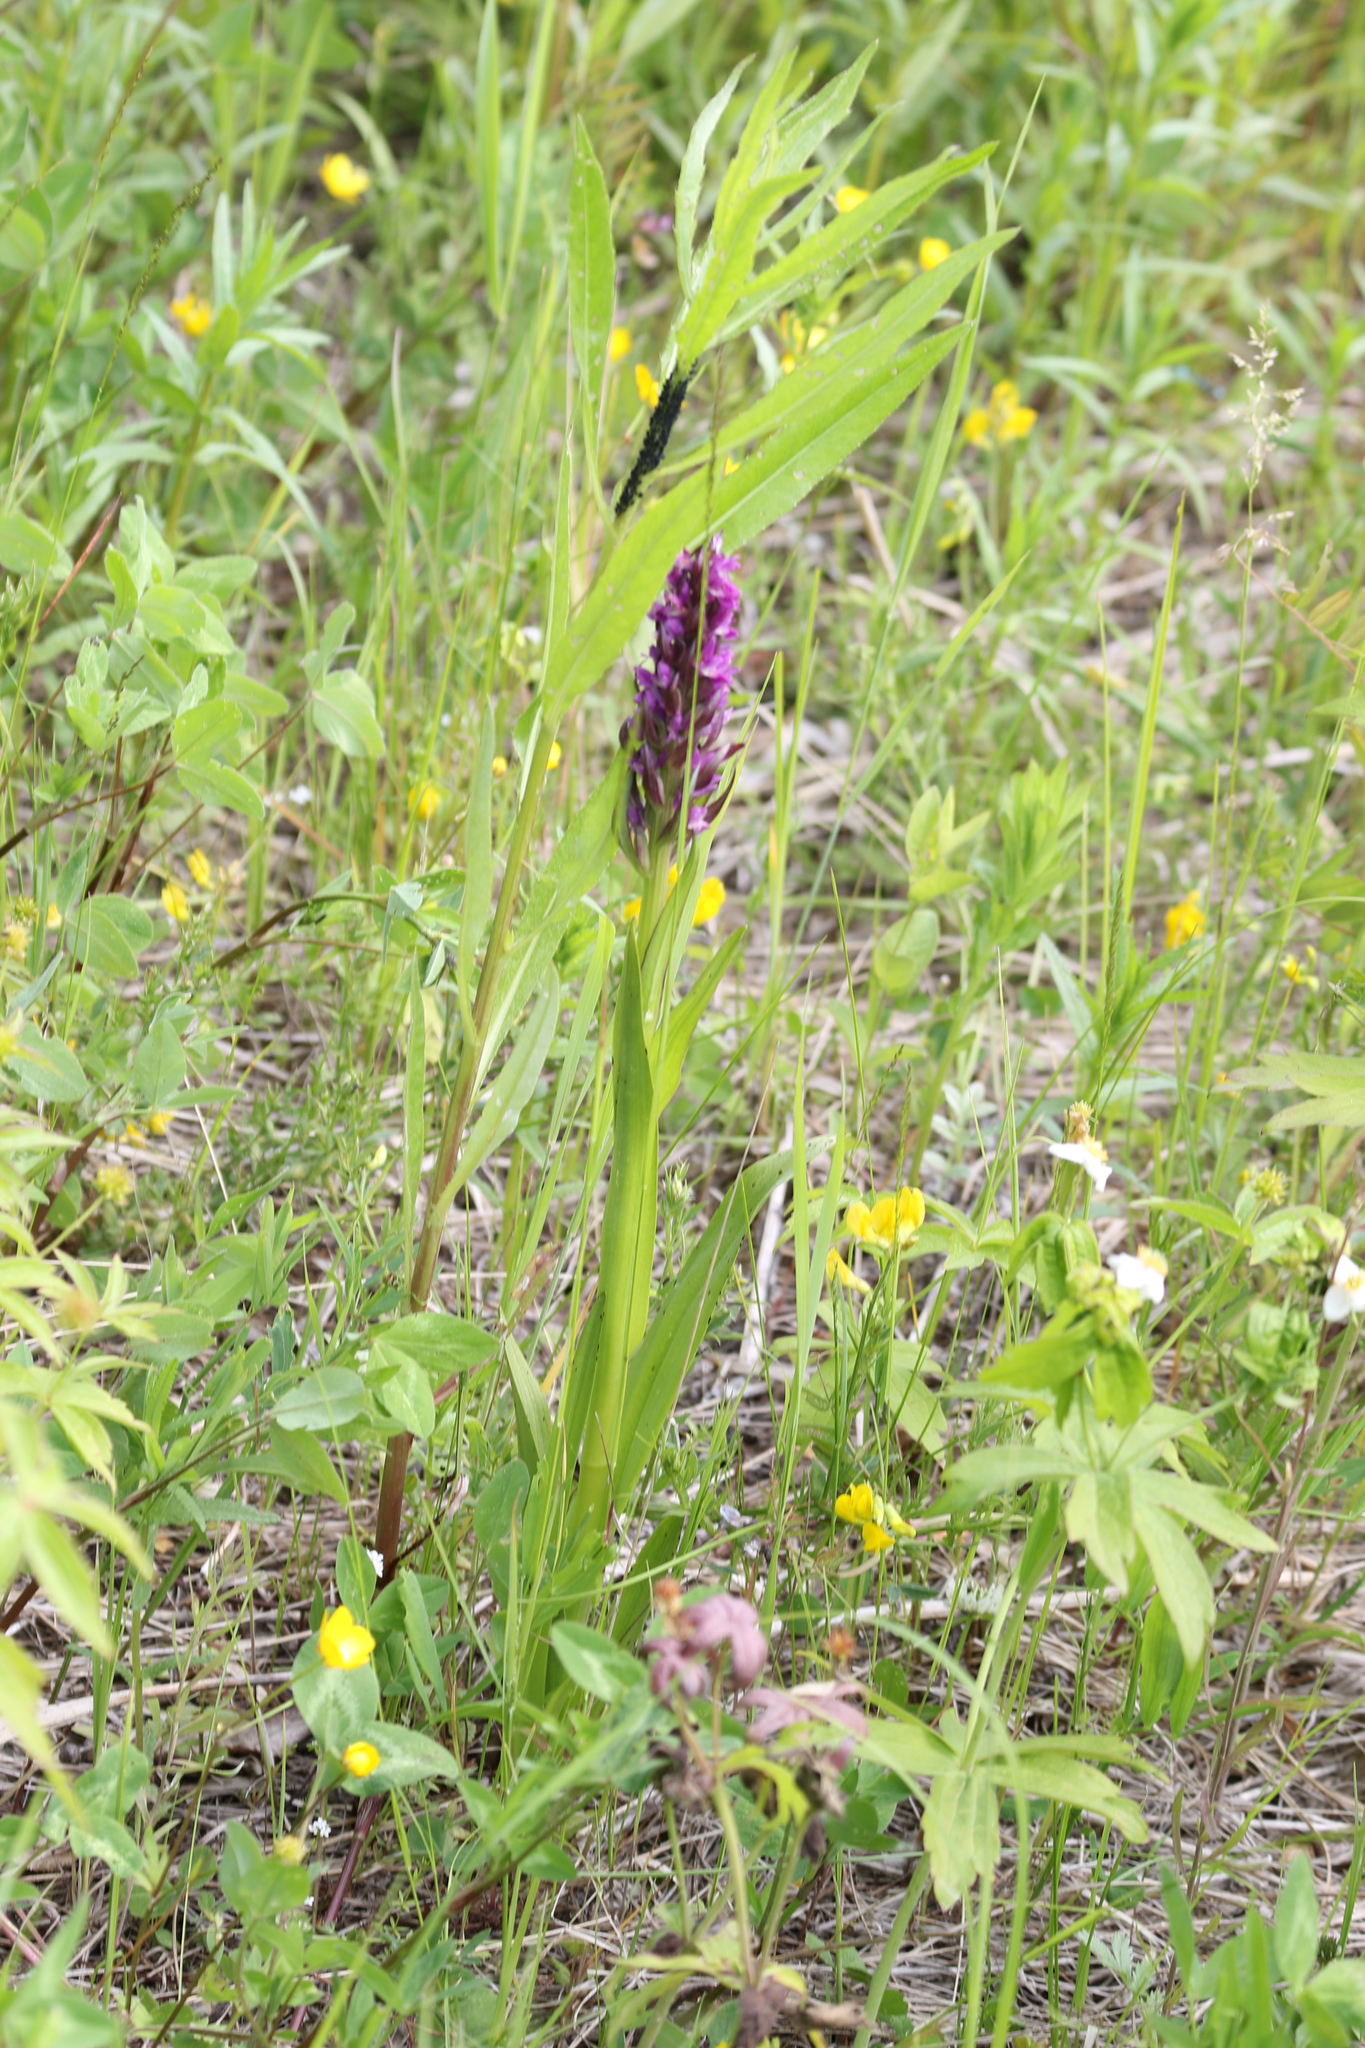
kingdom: Plantae
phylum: Tracheophyta
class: Liliopsida
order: Asparagales
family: Orchidaceae
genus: Dactylorhiza
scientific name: Dactylorhiza incarnata
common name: Early marsh-orchid
